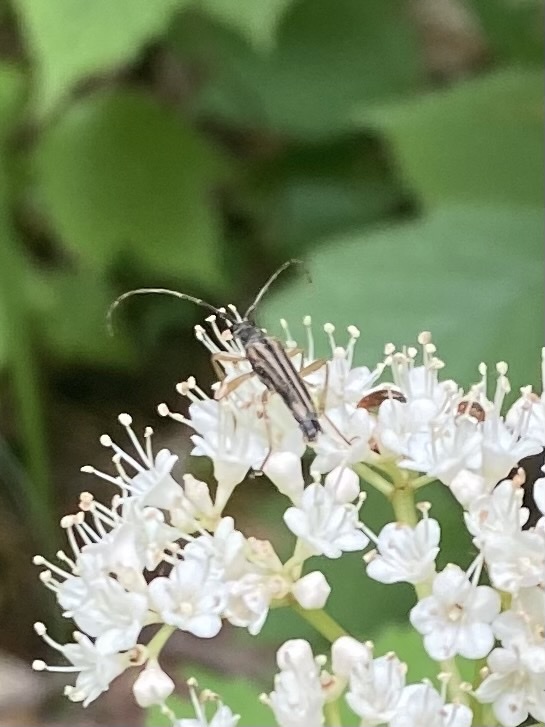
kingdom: Animalia
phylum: Arthropoda
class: Insecta
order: Coleoptera
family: Cerambycidae
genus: Analeptura
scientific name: Analeptura lineola
